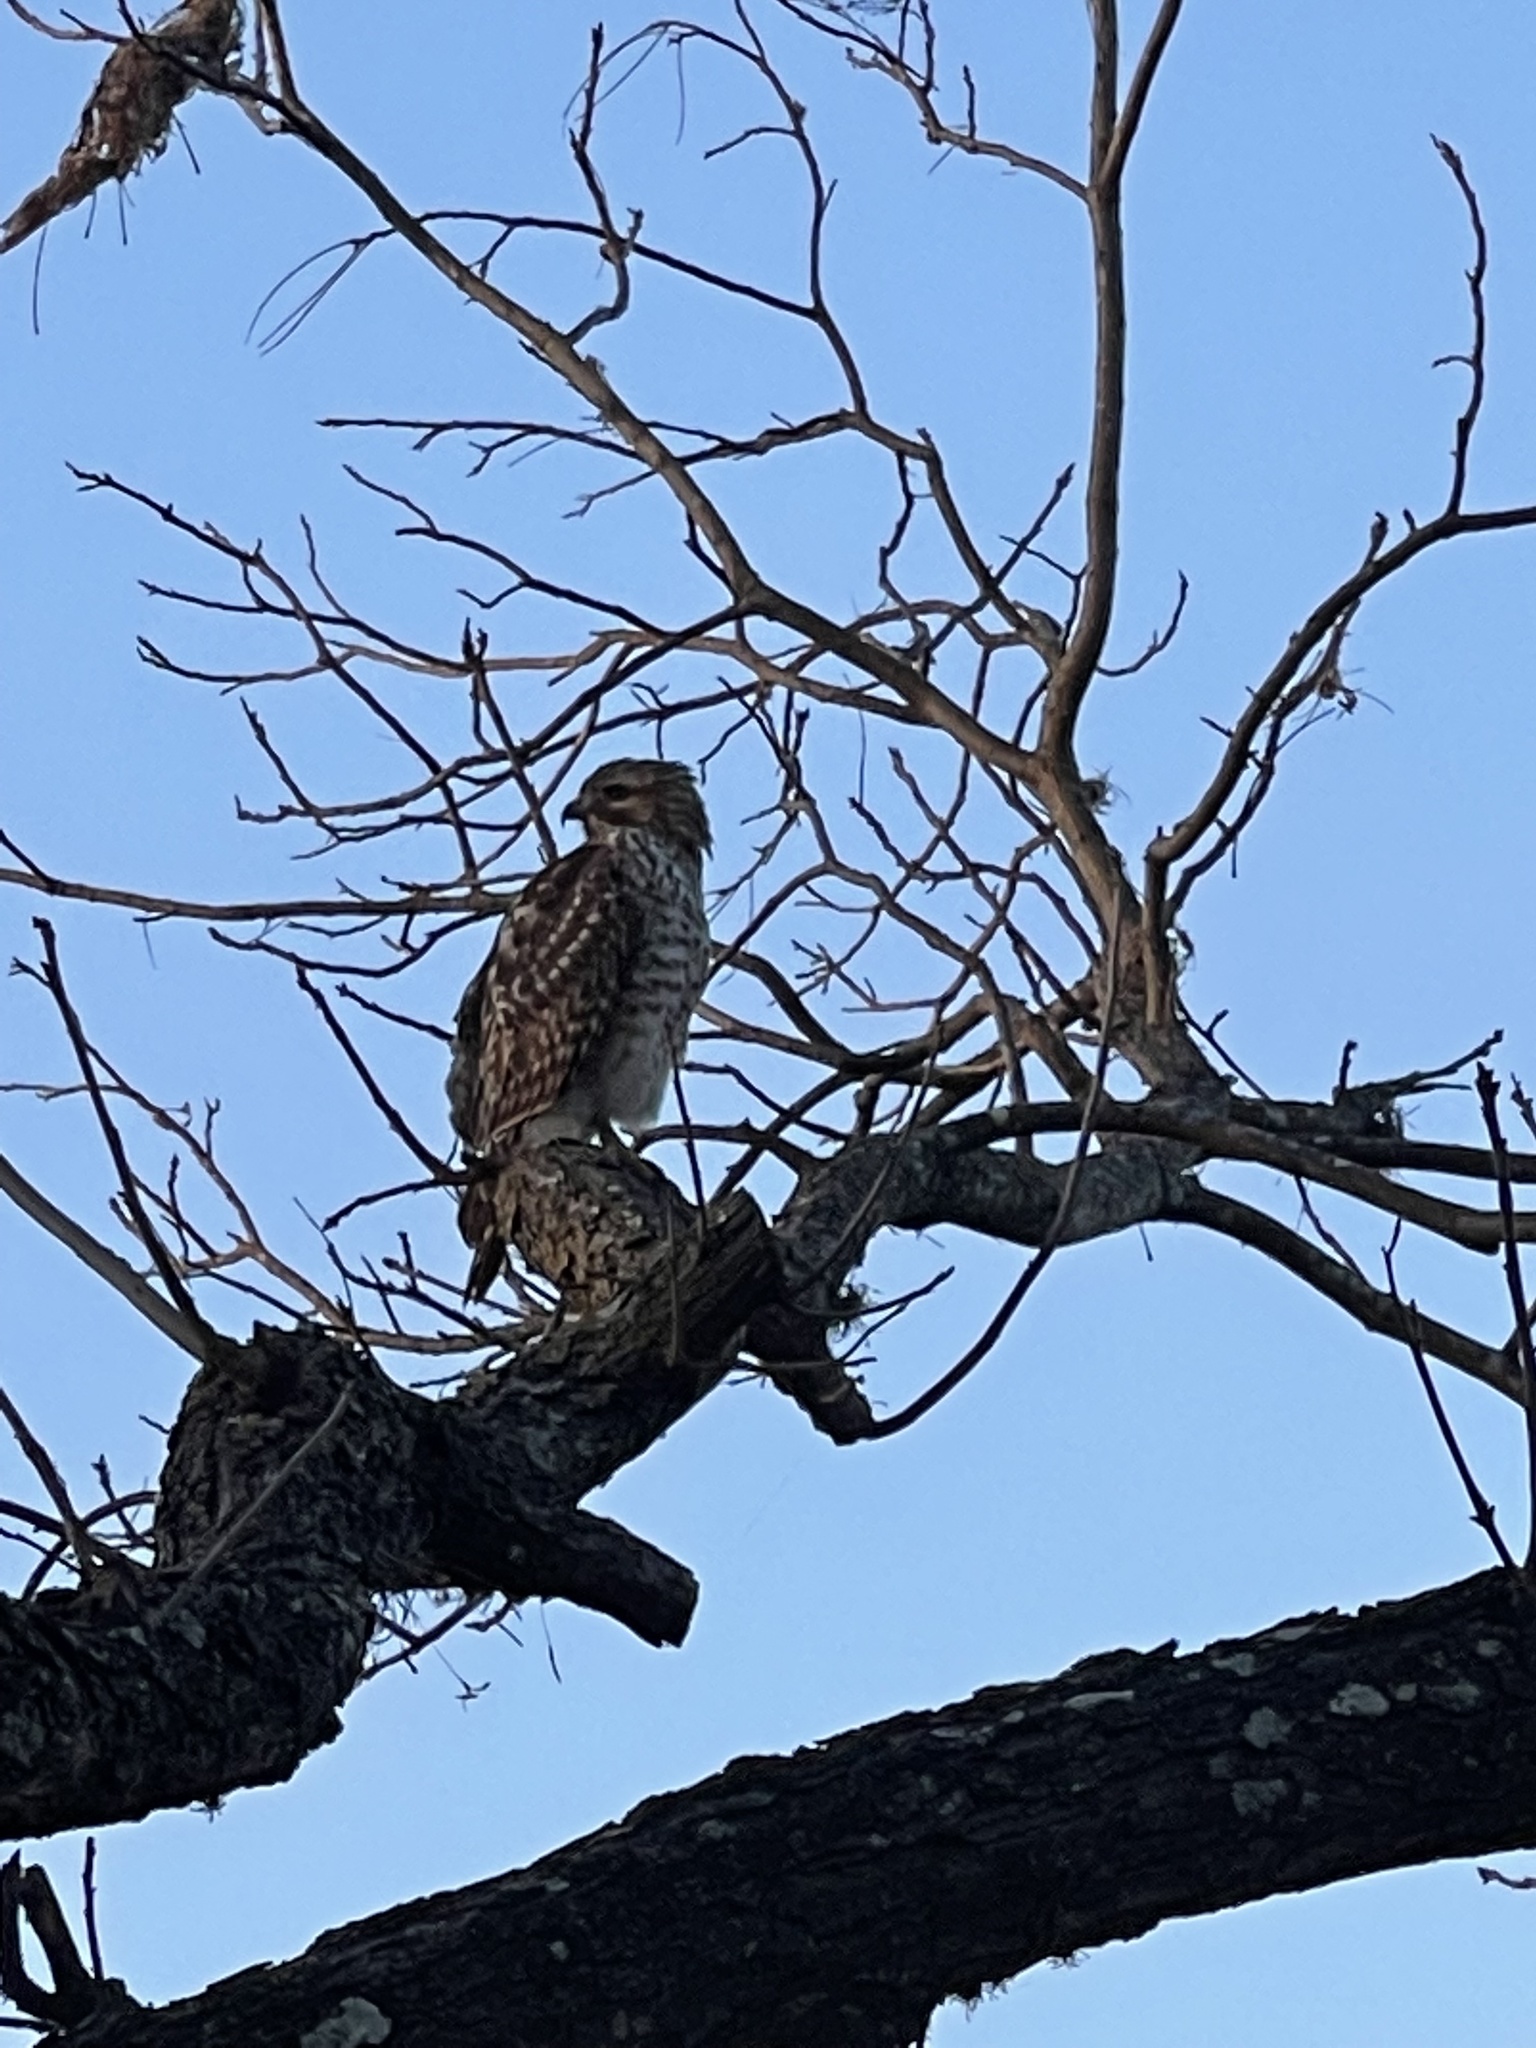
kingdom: Animalia
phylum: Chordata
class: Aves
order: Accipitriformes
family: Accipitridae
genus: Buteo
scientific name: Buteo lineatus
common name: Red-shouldered hawk
